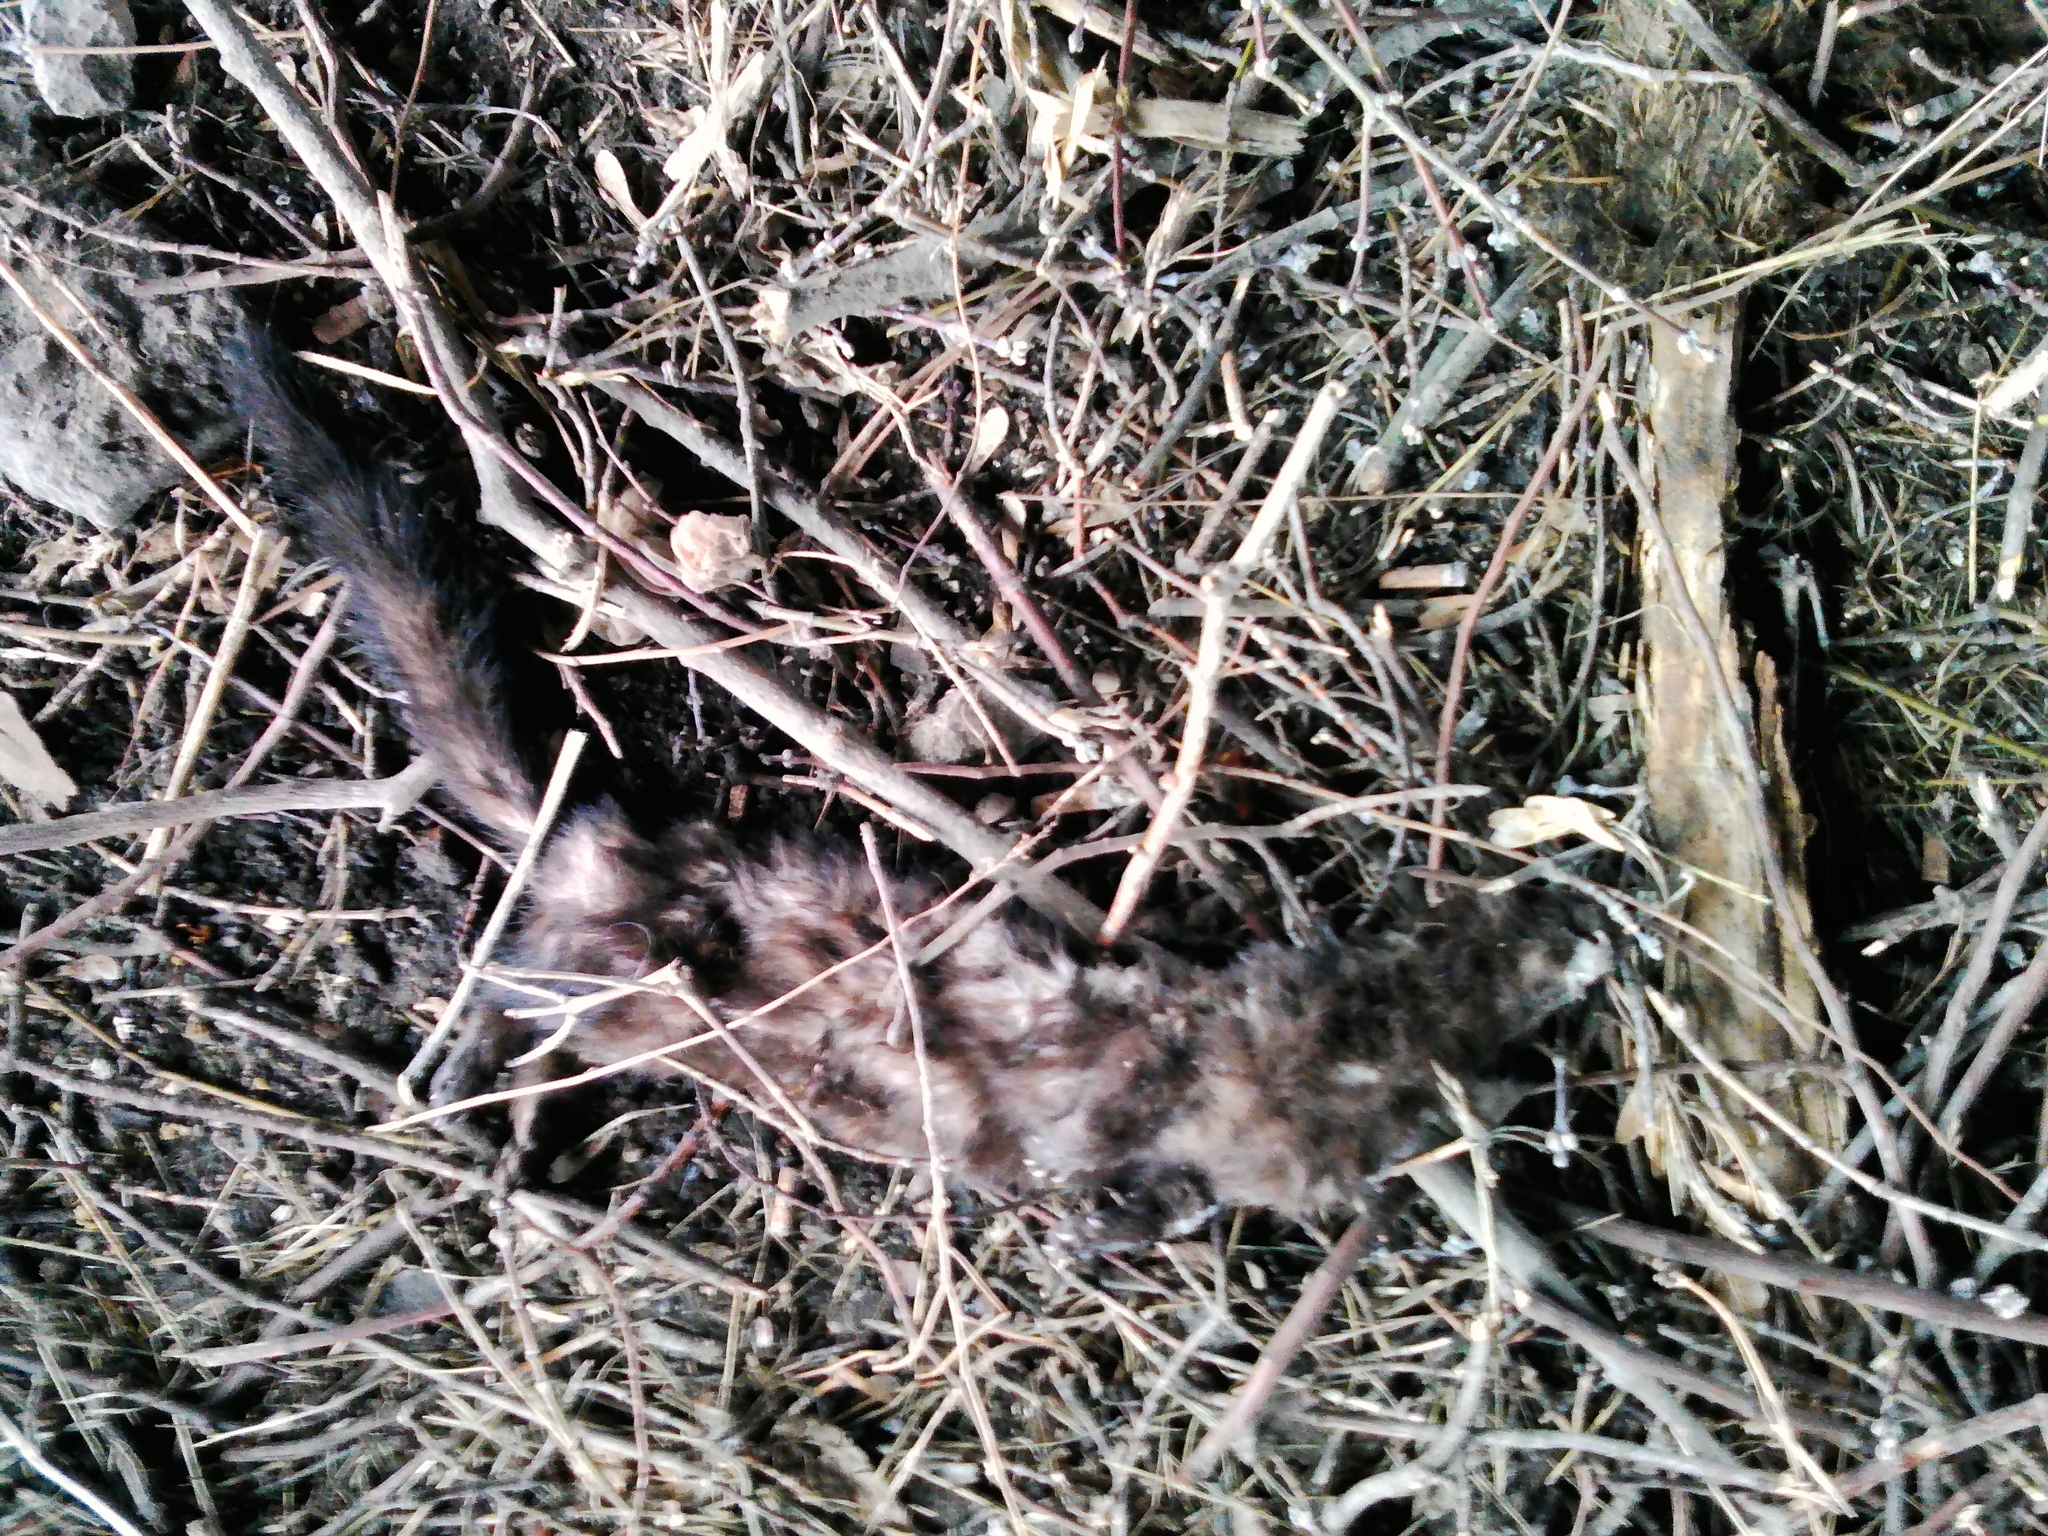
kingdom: Animalia
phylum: Chordata
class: Mammalia
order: Carnivora
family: Mustelidae
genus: Mustela
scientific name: Mustela
